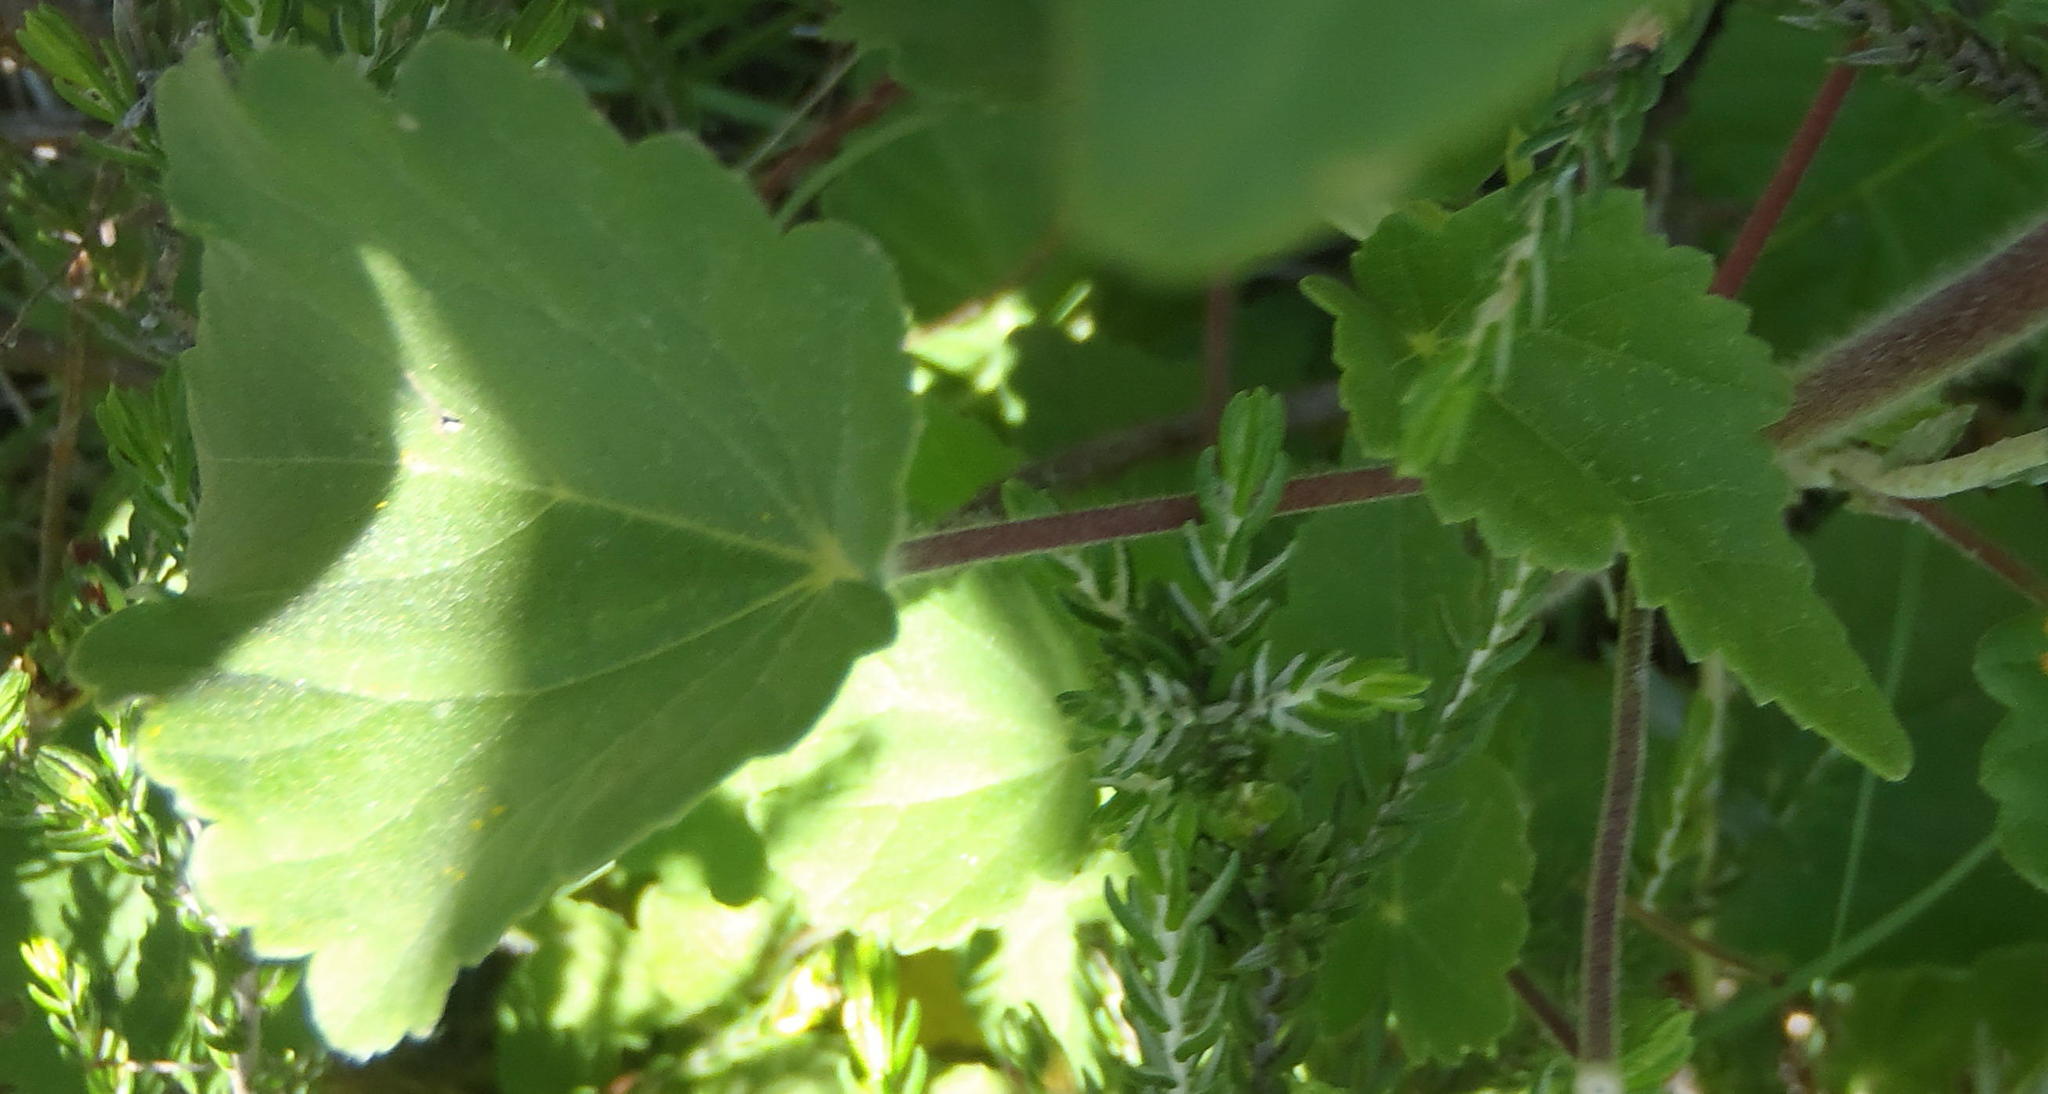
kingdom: Plantae
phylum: Tracheophyta
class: Magnoliopsida
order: Malvales
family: Malvaceae
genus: Abutilon
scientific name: Abutilon sonneratianum
